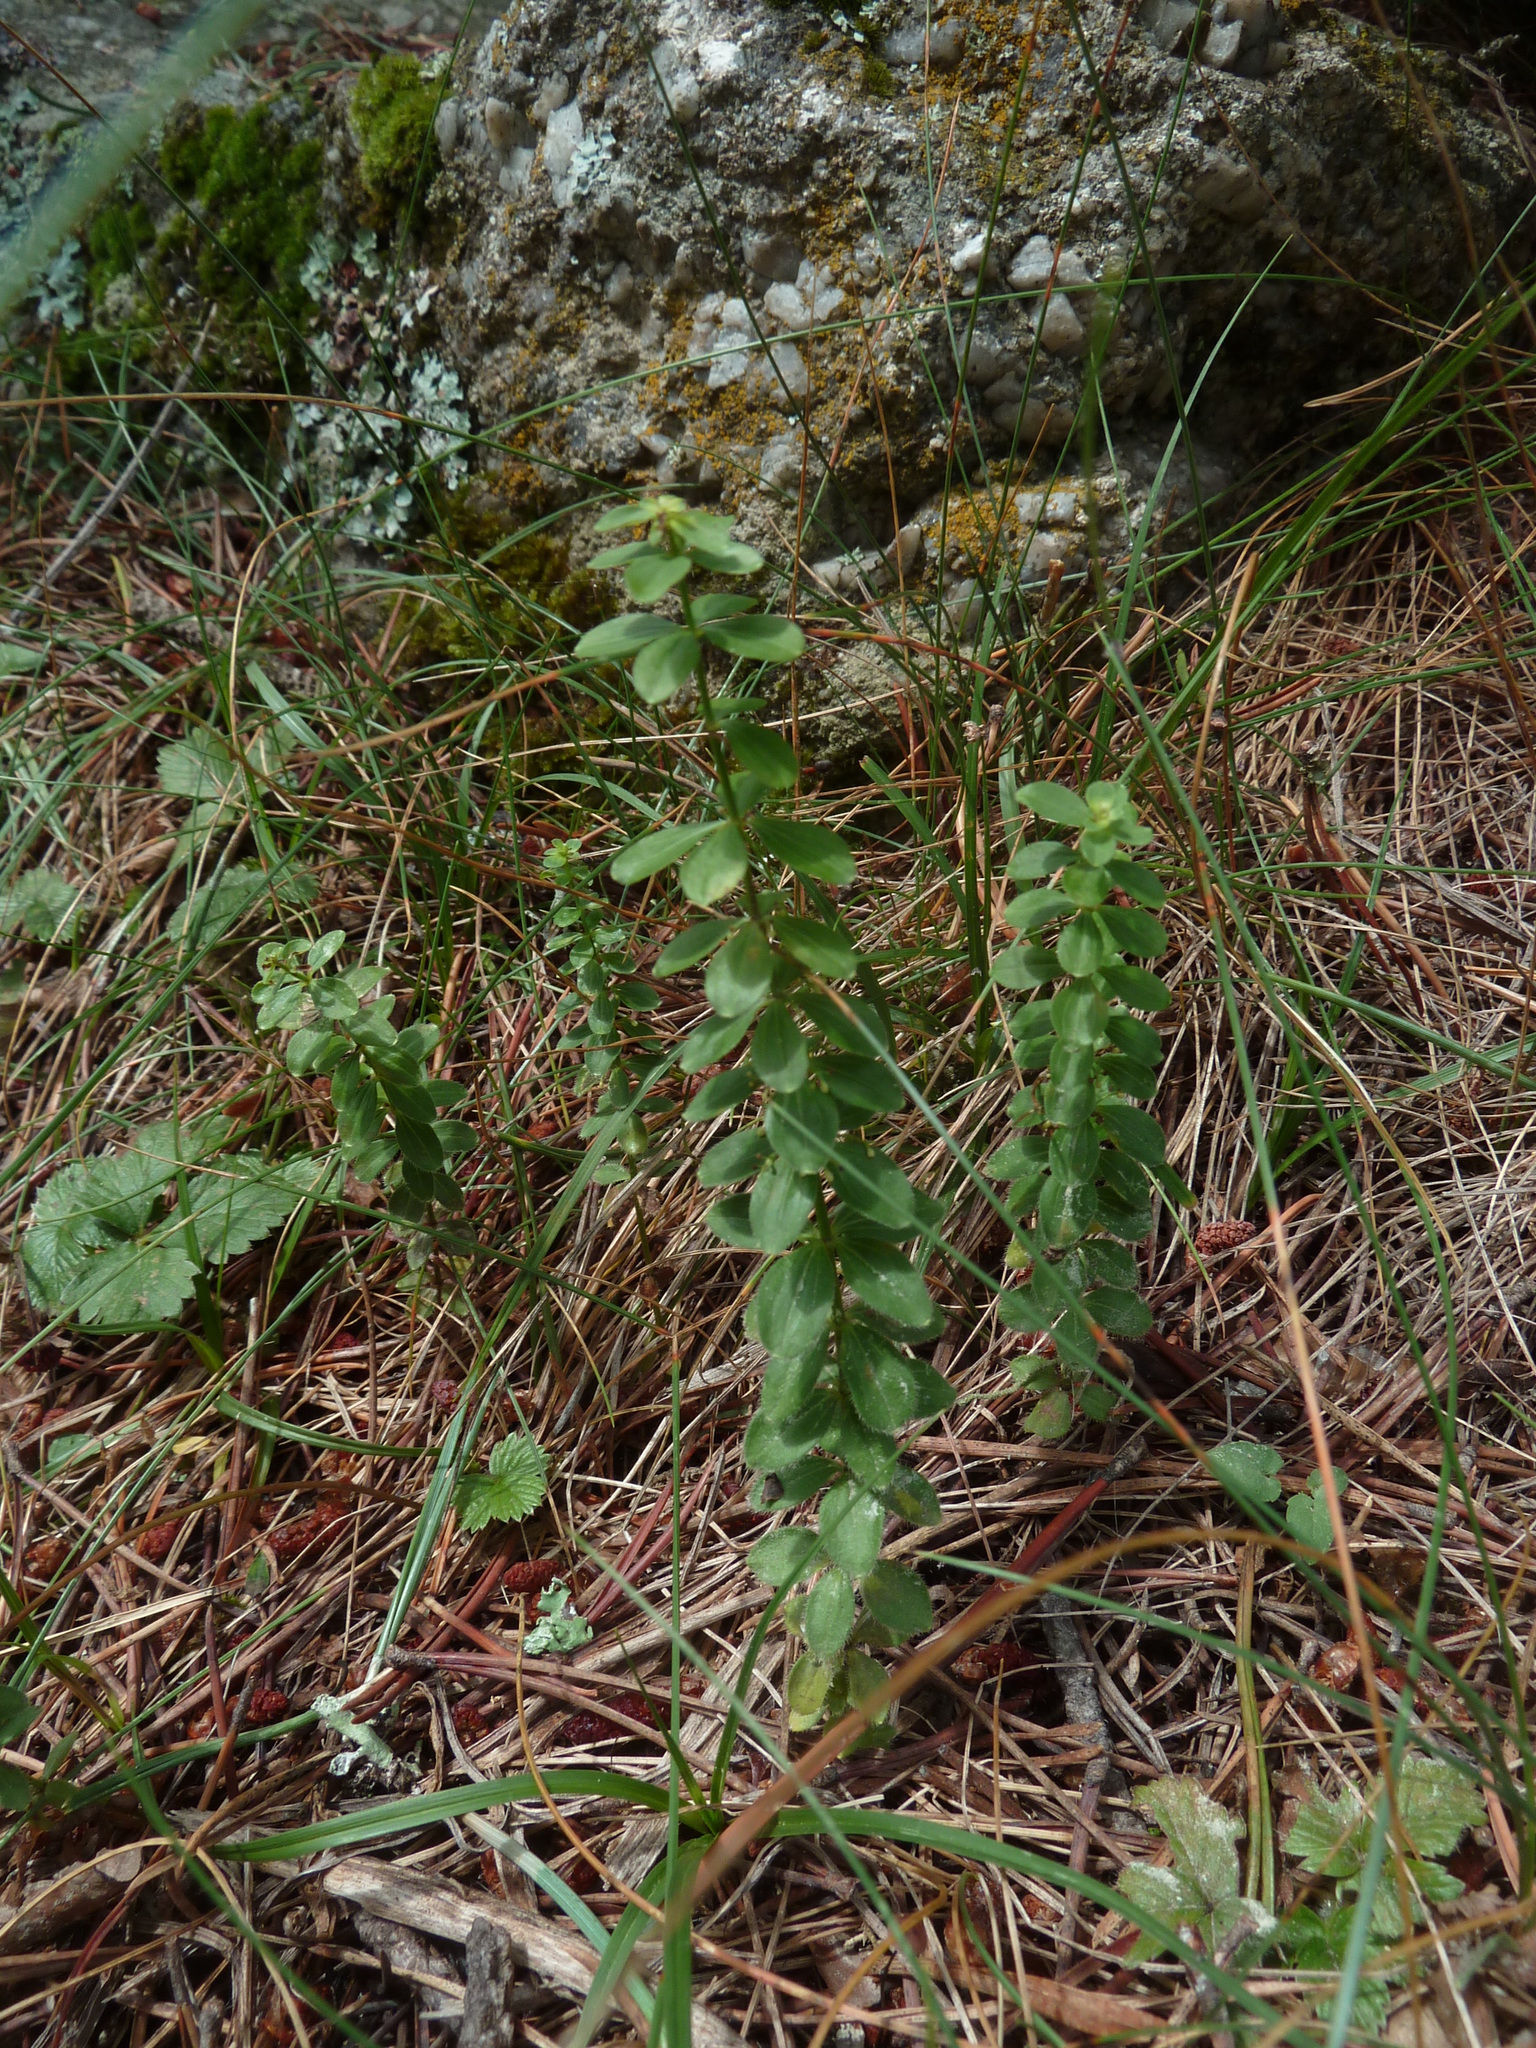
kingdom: Plantae
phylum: Tracheophyta
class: Magnoliopsida
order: Gentianales
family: Rubiaceae
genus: Cruciata
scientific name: Cruciata glabra
